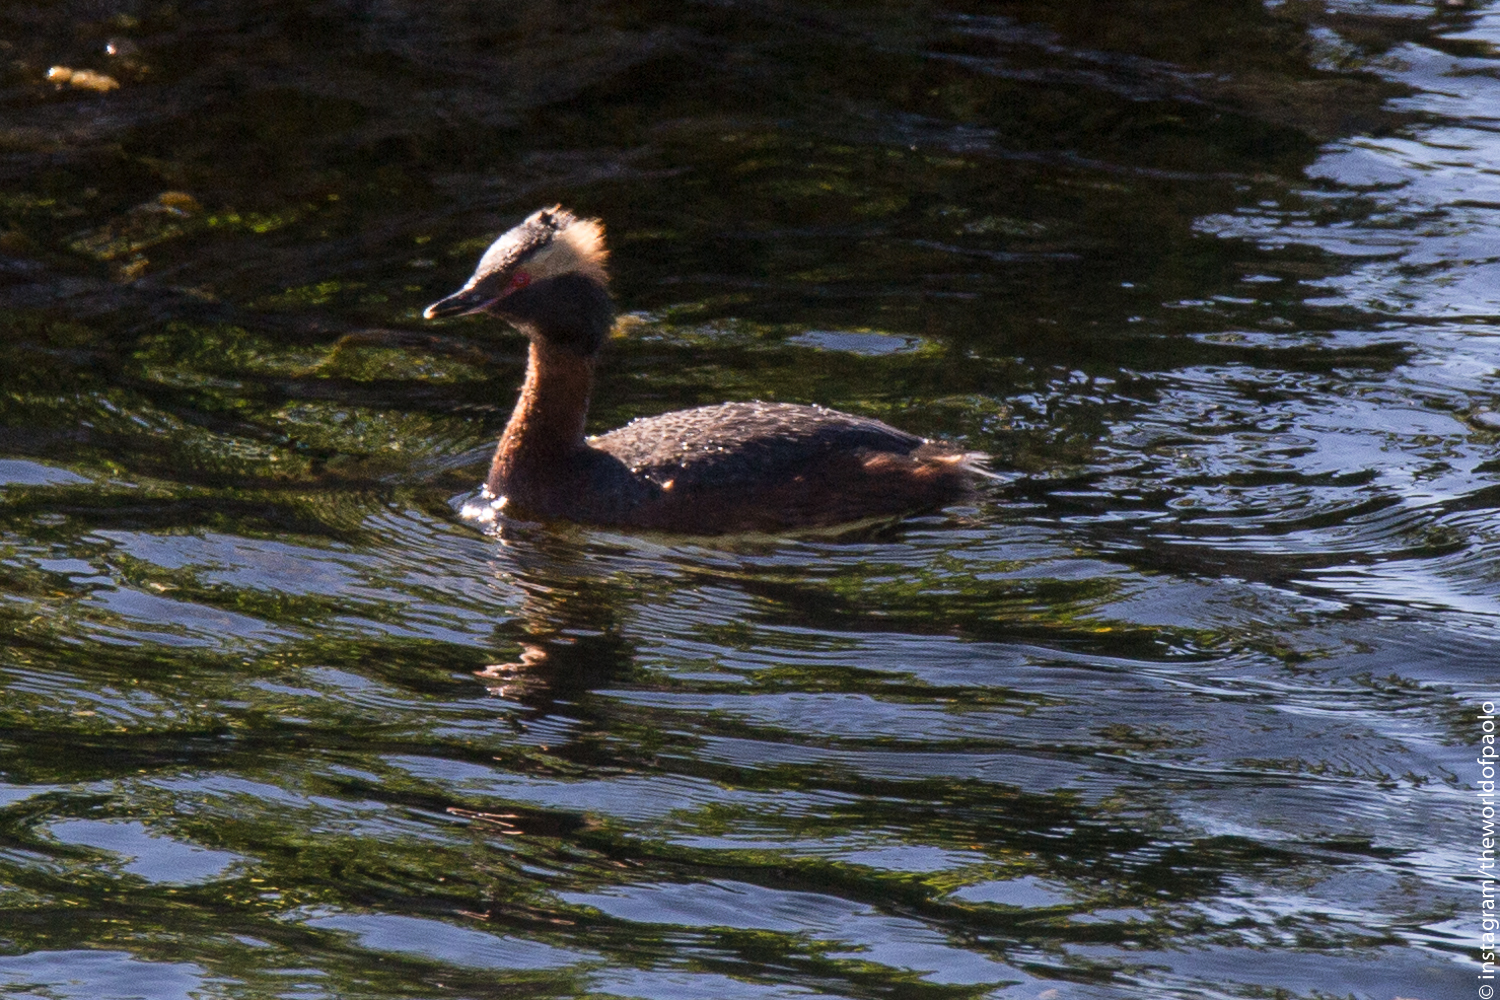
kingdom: Animalia
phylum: Chordata
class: Aves
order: Podicipediformes
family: Podicipedidae
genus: Podiceps
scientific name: Podiceps auritus
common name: Horned grebe
